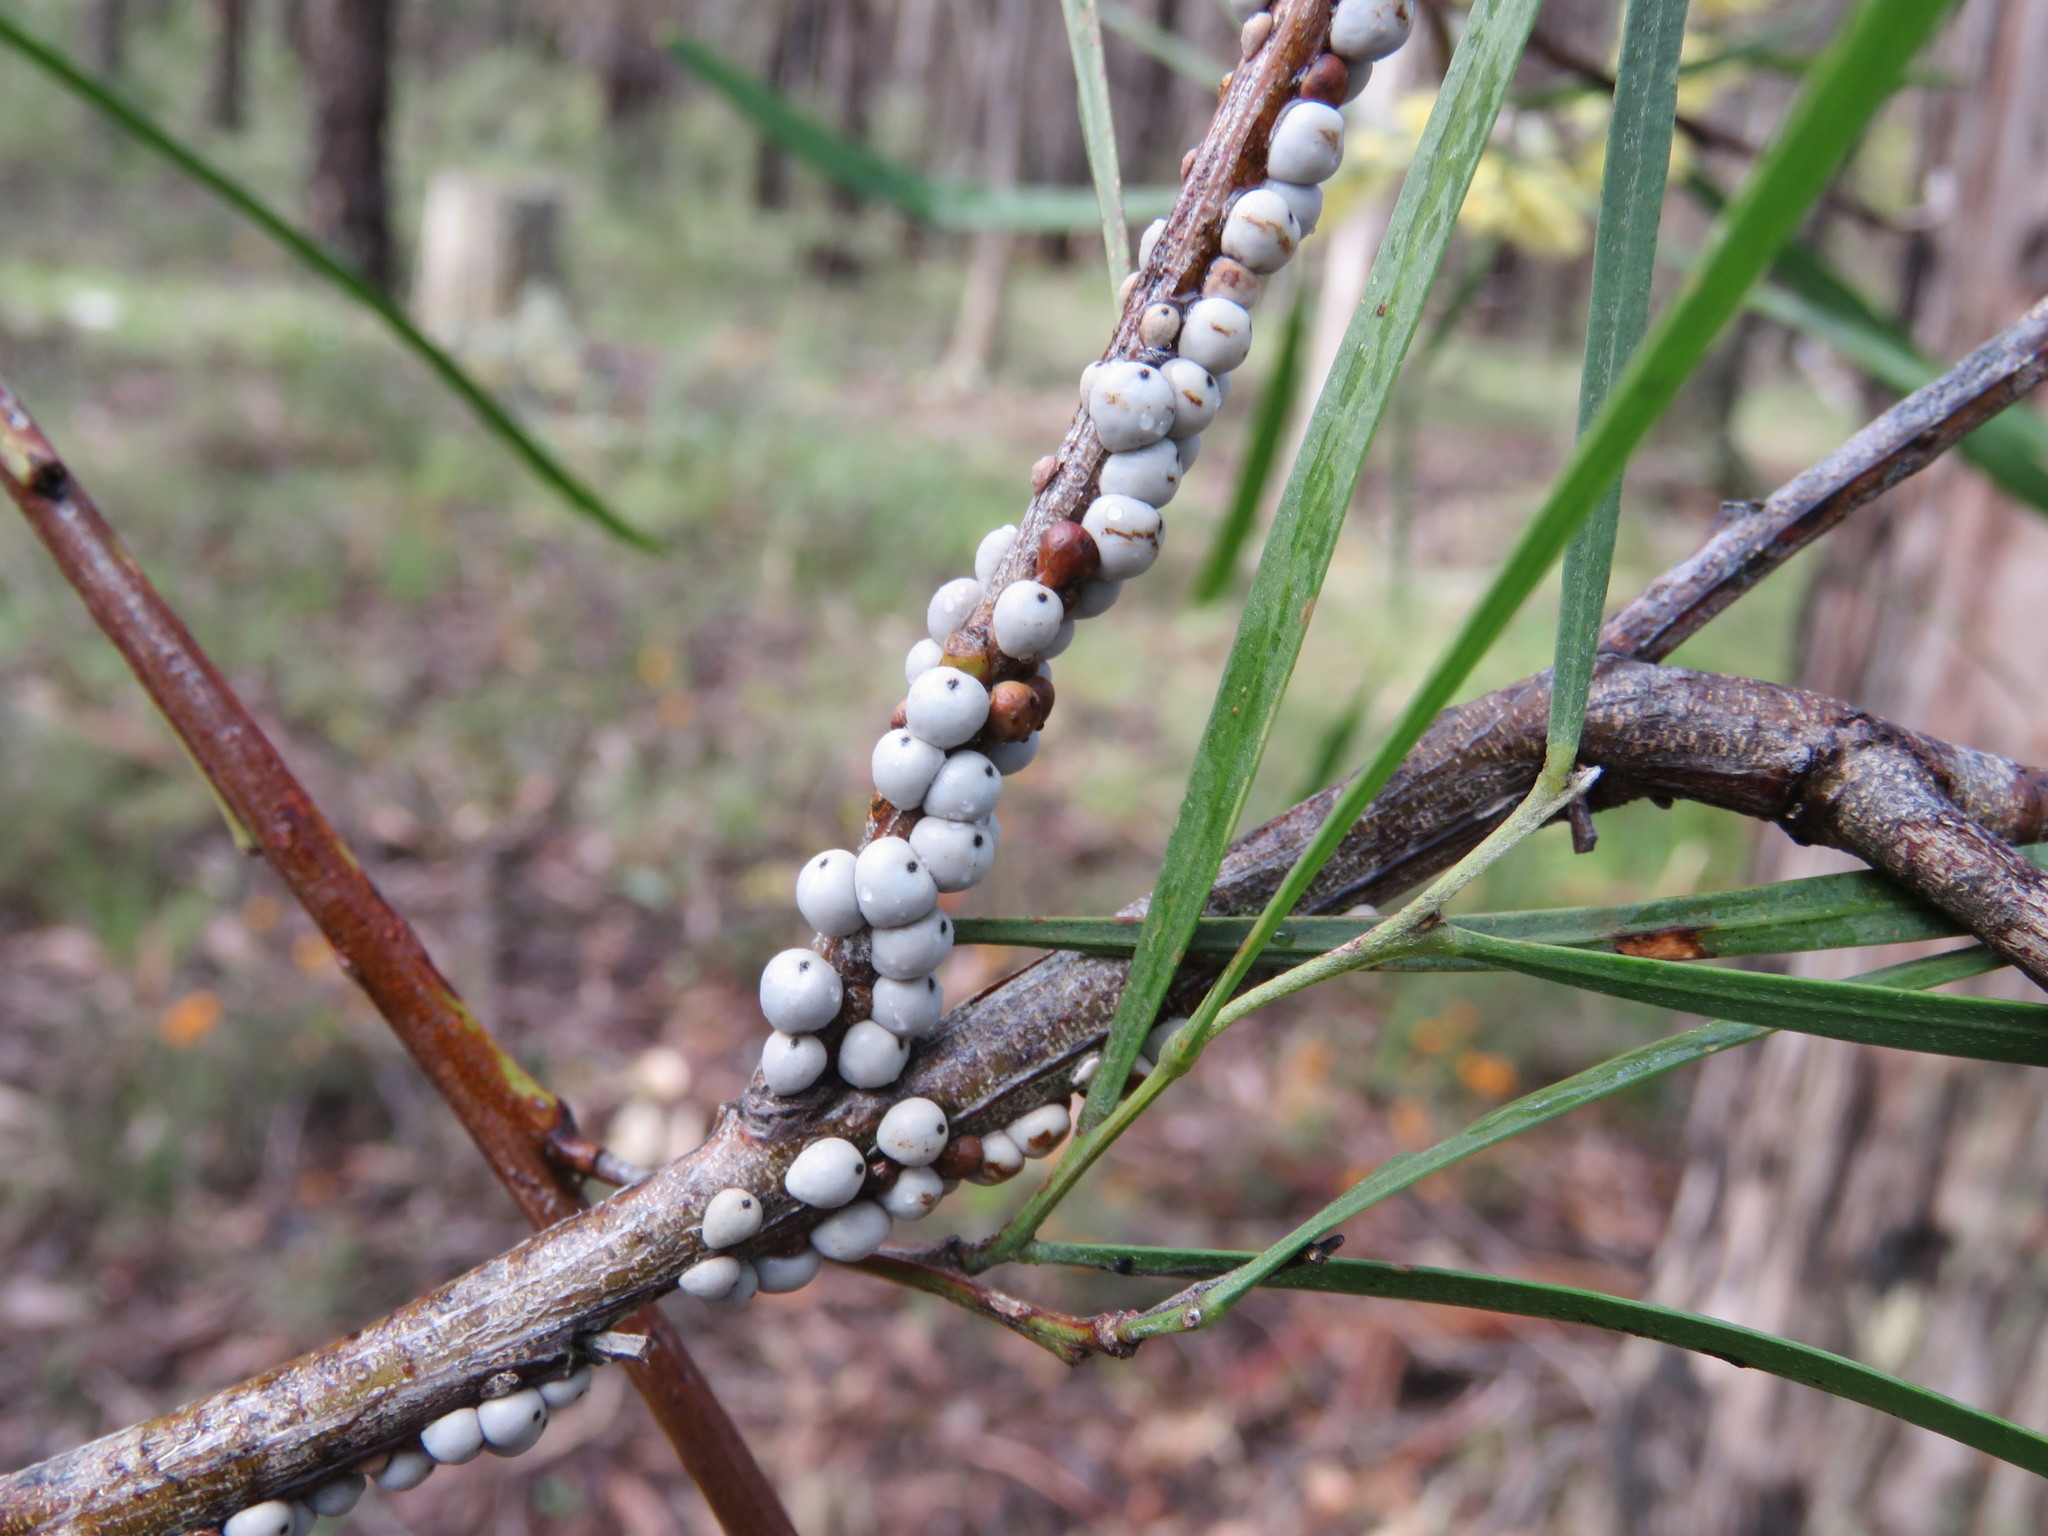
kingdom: Animalia
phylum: Arthropoda
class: Insecta
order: Hemiptera
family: Coccidae
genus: Cryptes
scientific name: Cryptes baccatus
